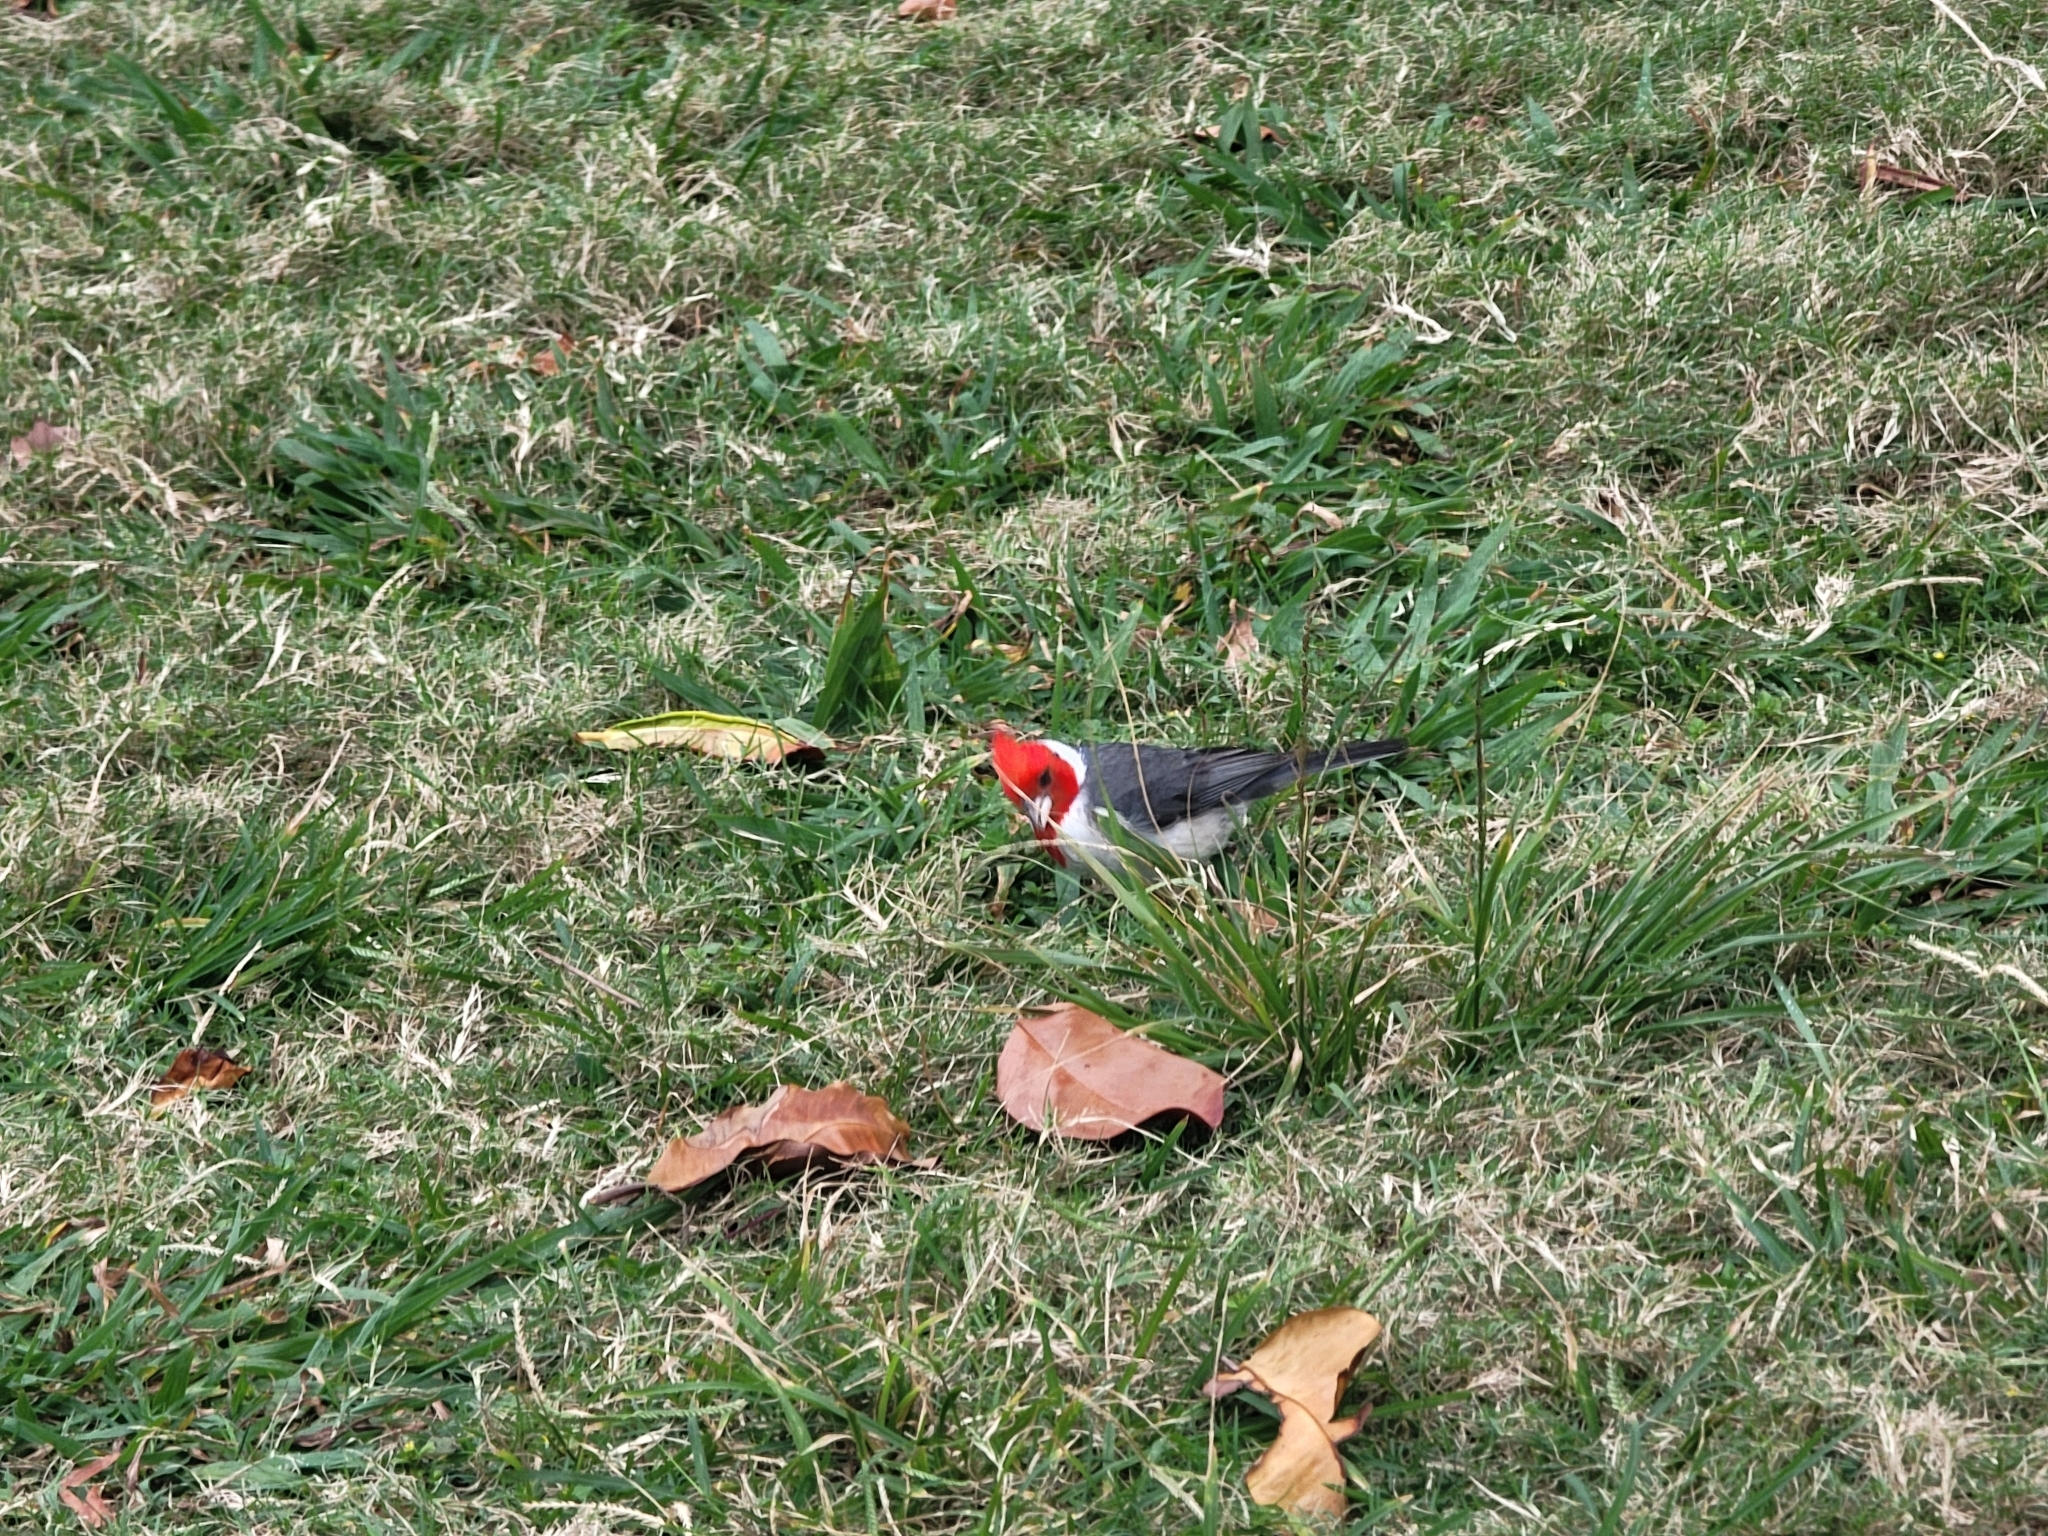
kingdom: Animalia
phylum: Chordata
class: Aves
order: Passeriformes
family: Thraupidae
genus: Paroaria
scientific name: Paroaria coronata
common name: Red-crested cardinal
